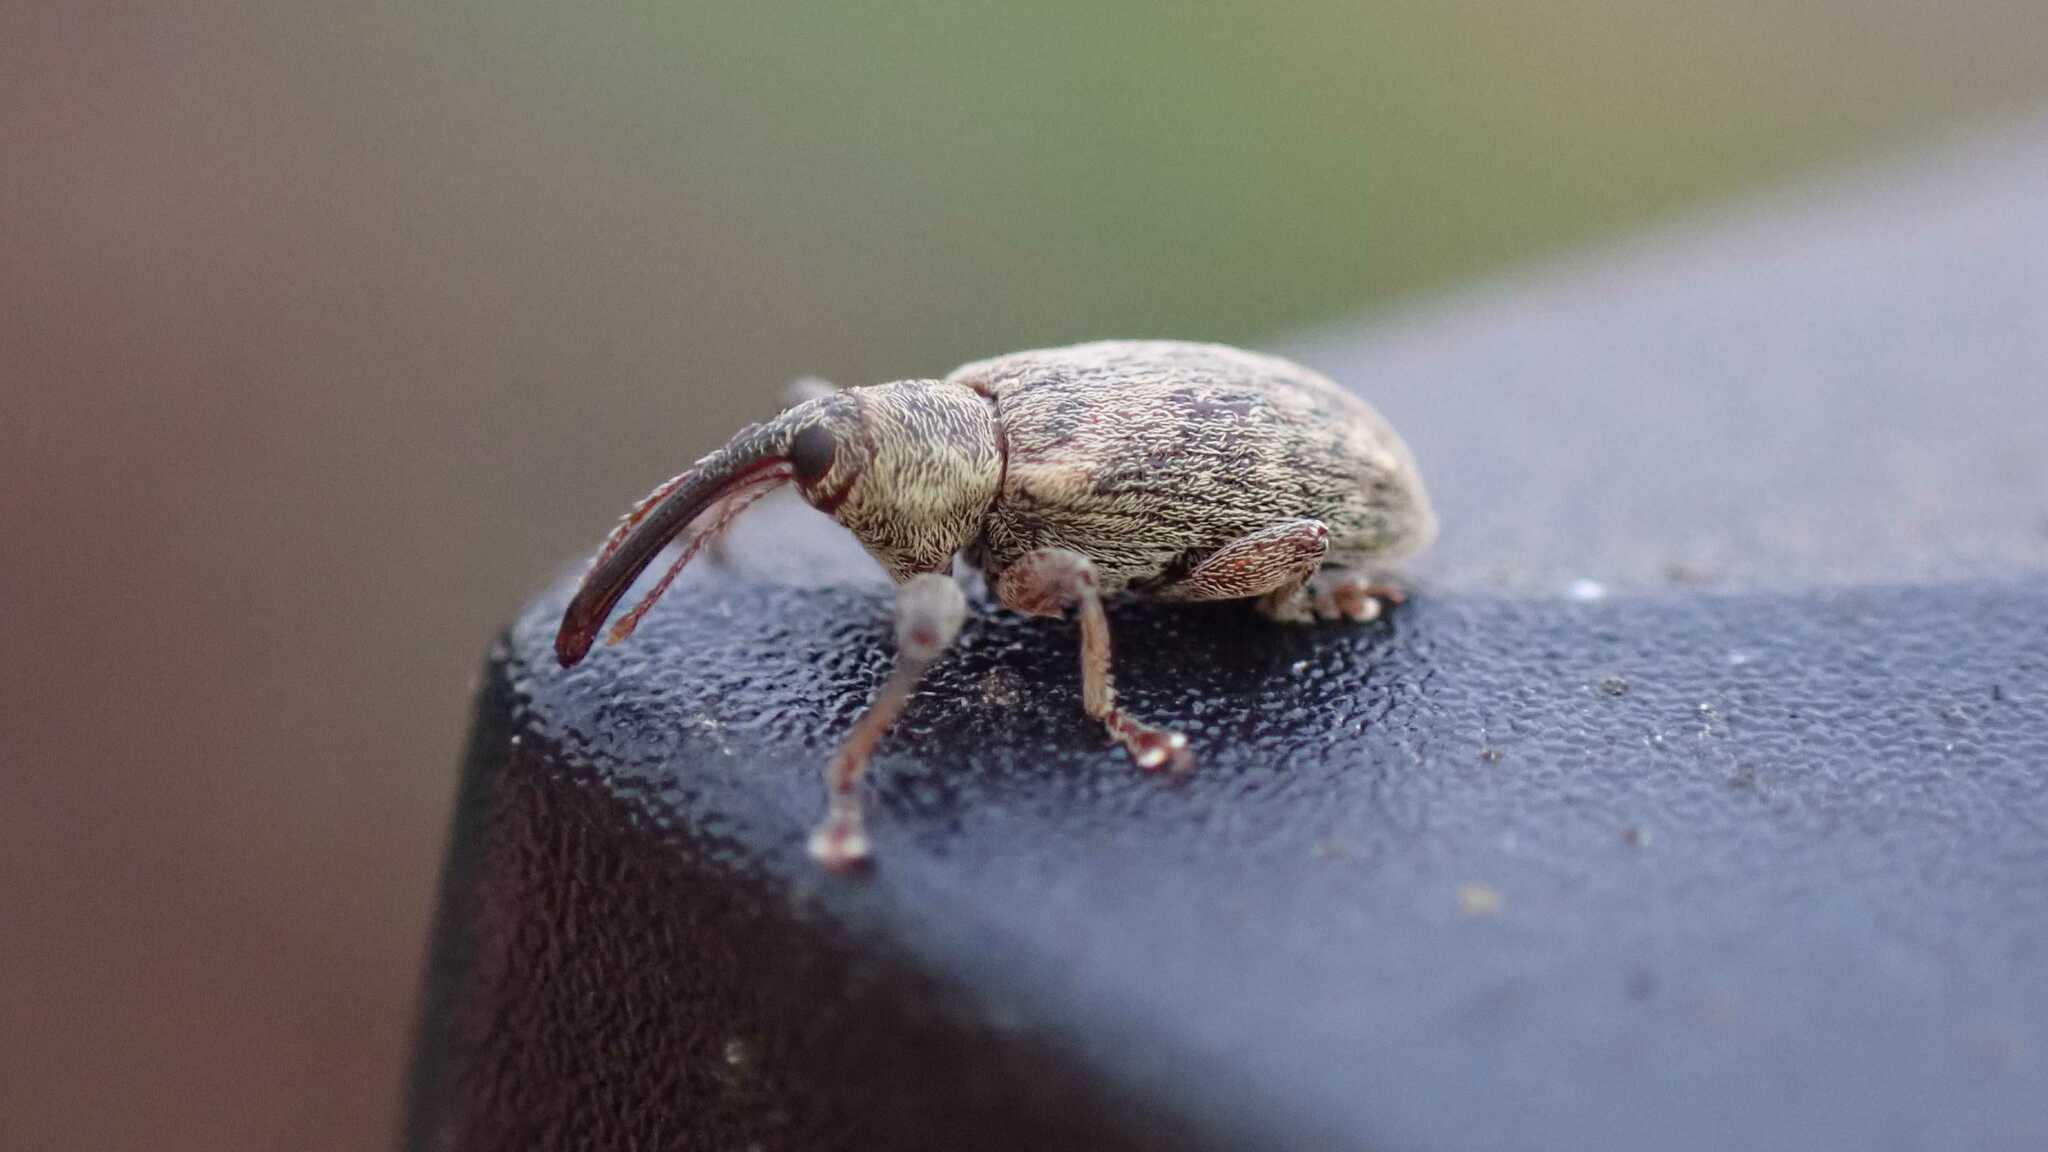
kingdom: Animalia
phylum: Arthropoda
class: Insecta
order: Coleoptera
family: Brachyceridae
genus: Erirhinus
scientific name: Erirhinus filirostris
